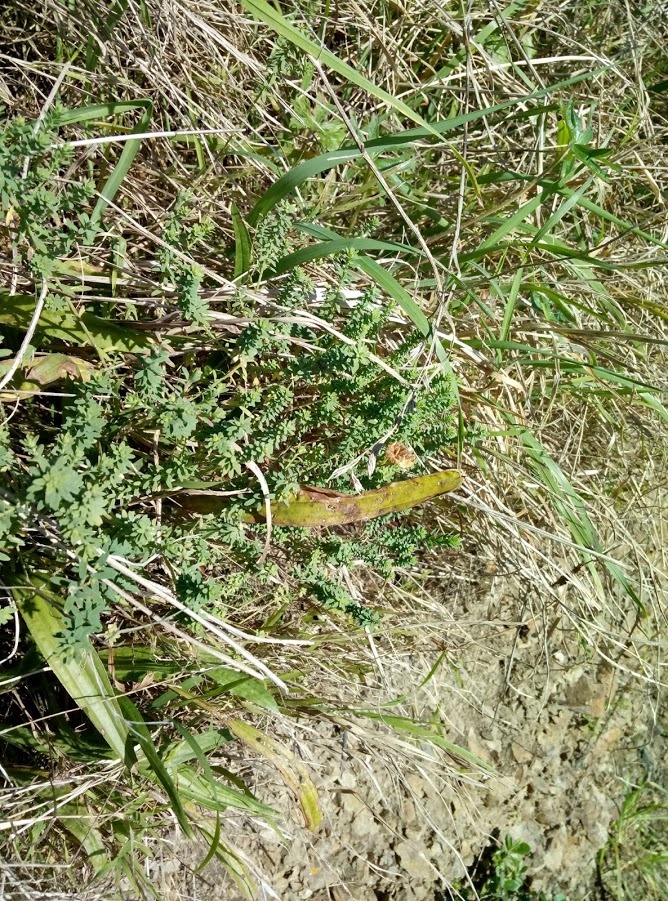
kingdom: Plantae
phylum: Tracheophyta
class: Magnoliopsida
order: Malpighiales
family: Linaceae
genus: Linum
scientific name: Linum monogynum
